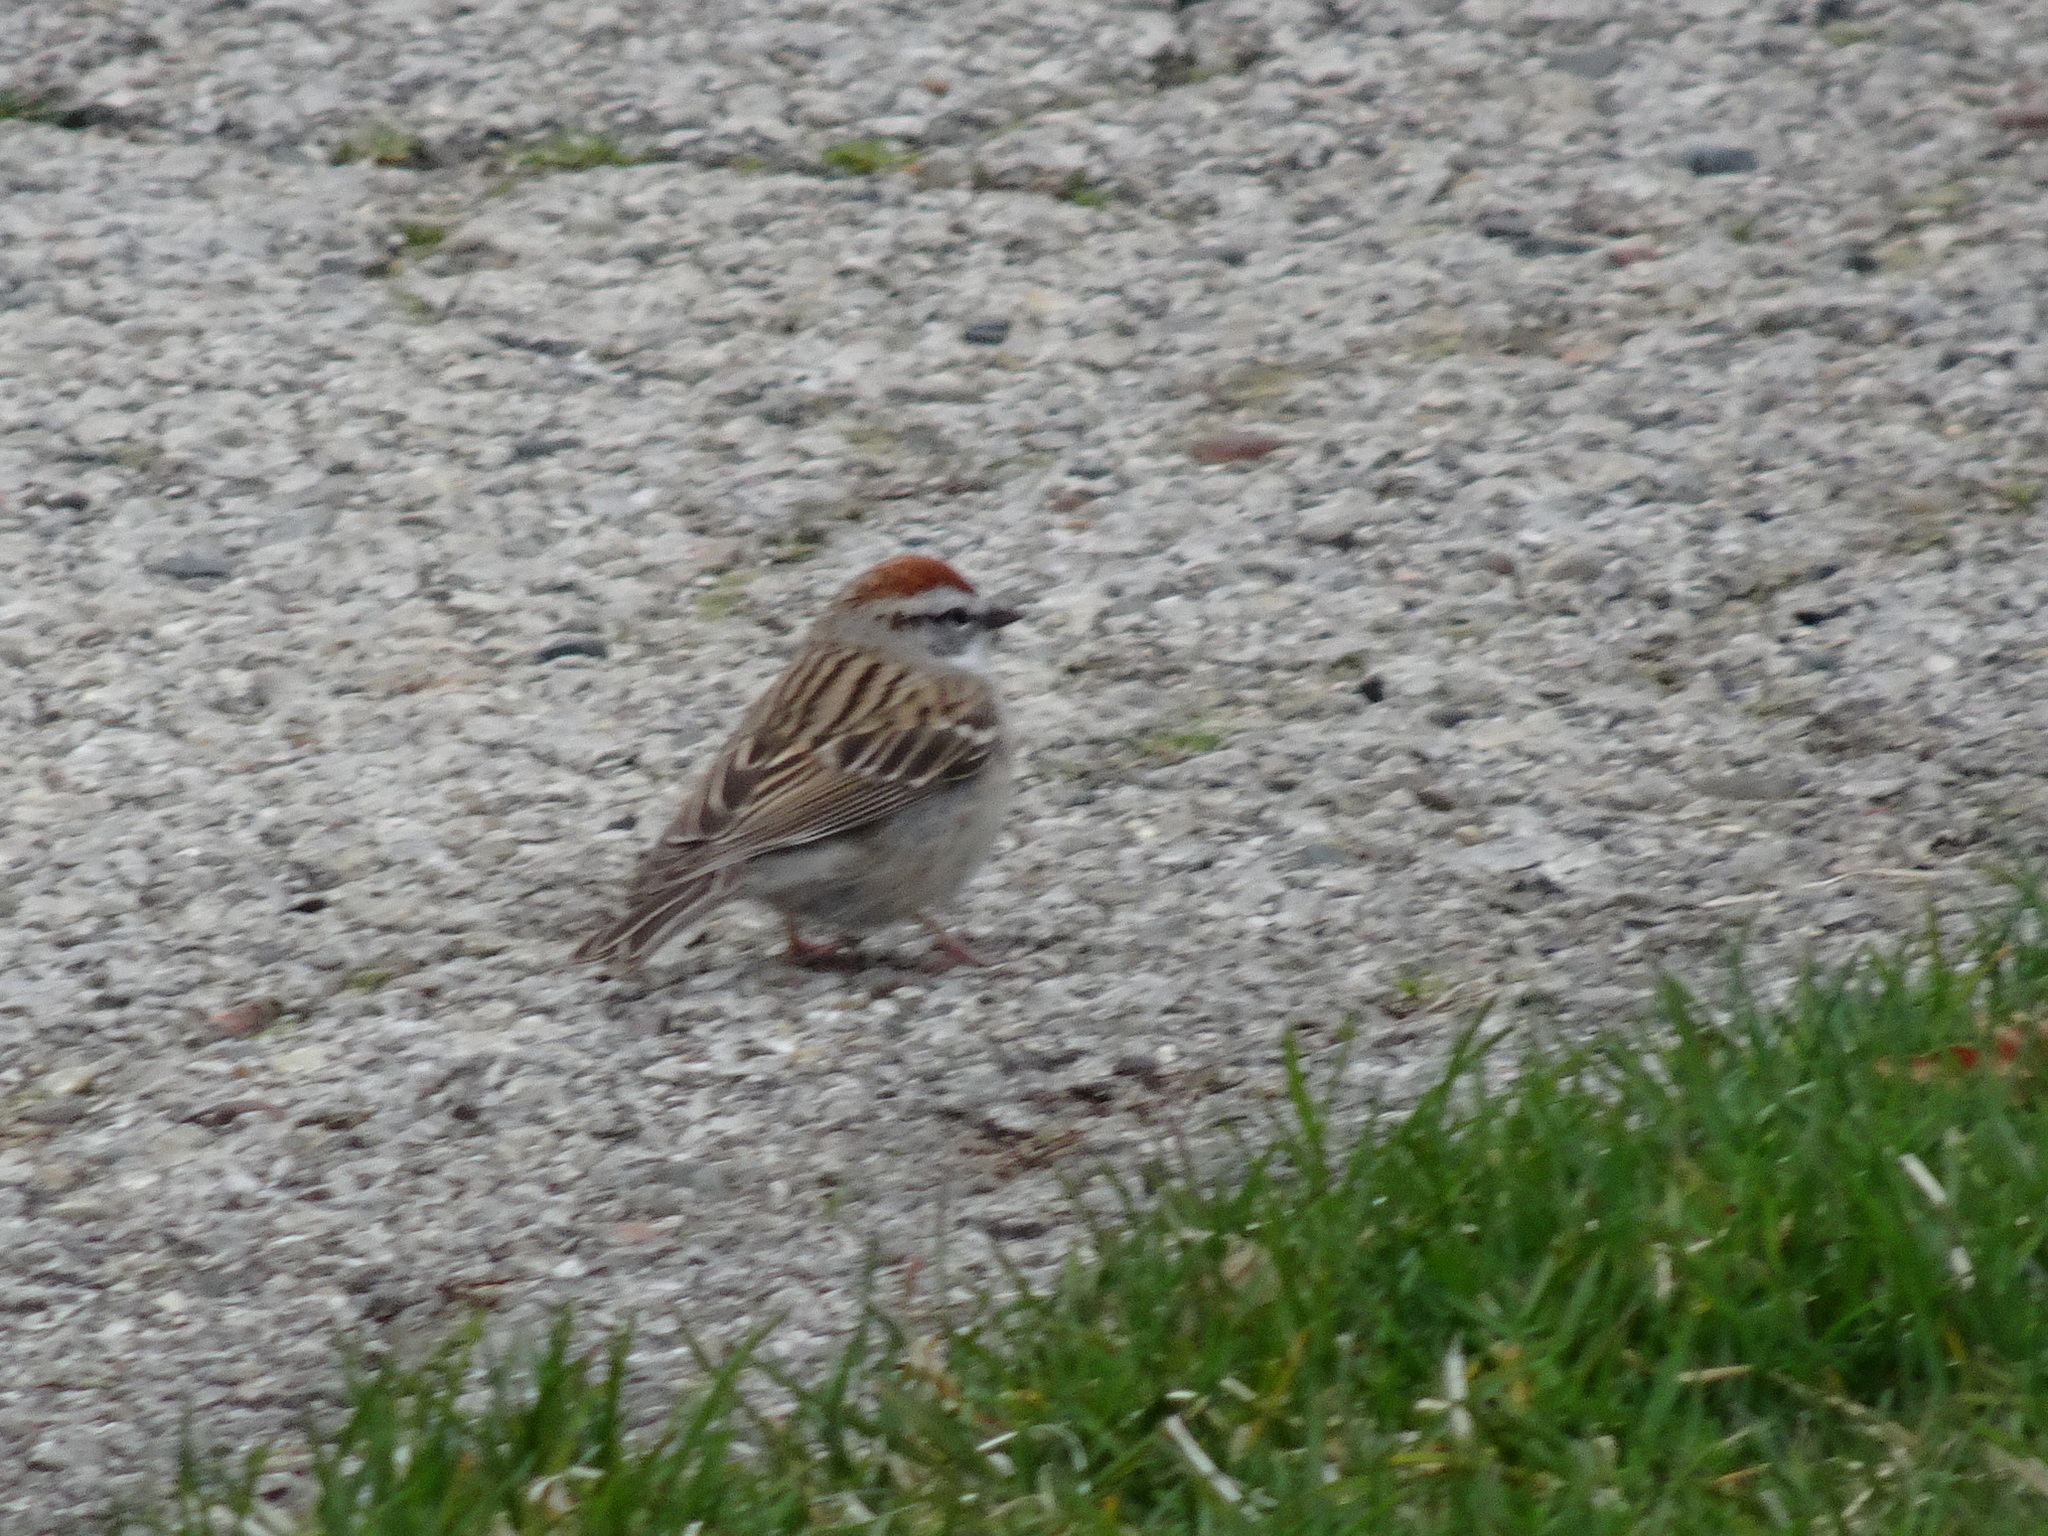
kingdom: Animalia
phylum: Chordata
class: Aves
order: Passeriformes
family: Passerellidae
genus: Spizella
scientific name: Spizella passerina
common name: Chipping sparrow
